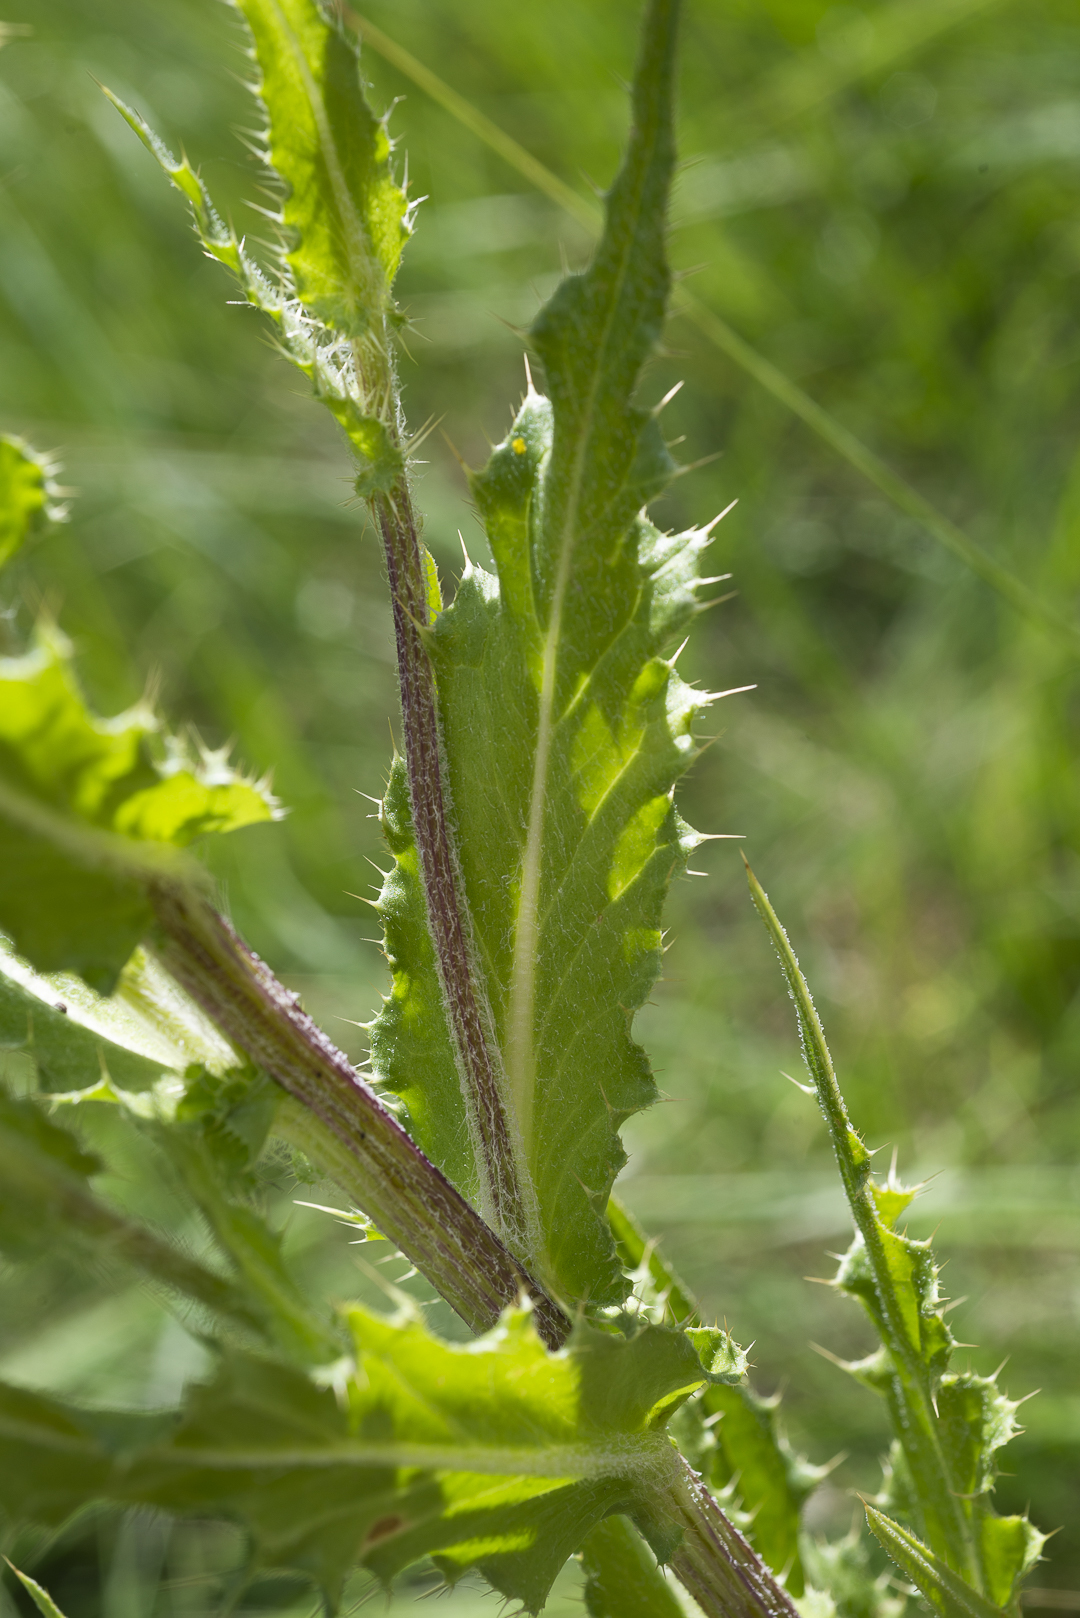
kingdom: Plantae
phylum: Tracheophyta
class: Magnoliopsida
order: Asterales
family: Asteraceae
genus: Cirsium
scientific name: Cirsium parryi
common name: Parry's thistle
